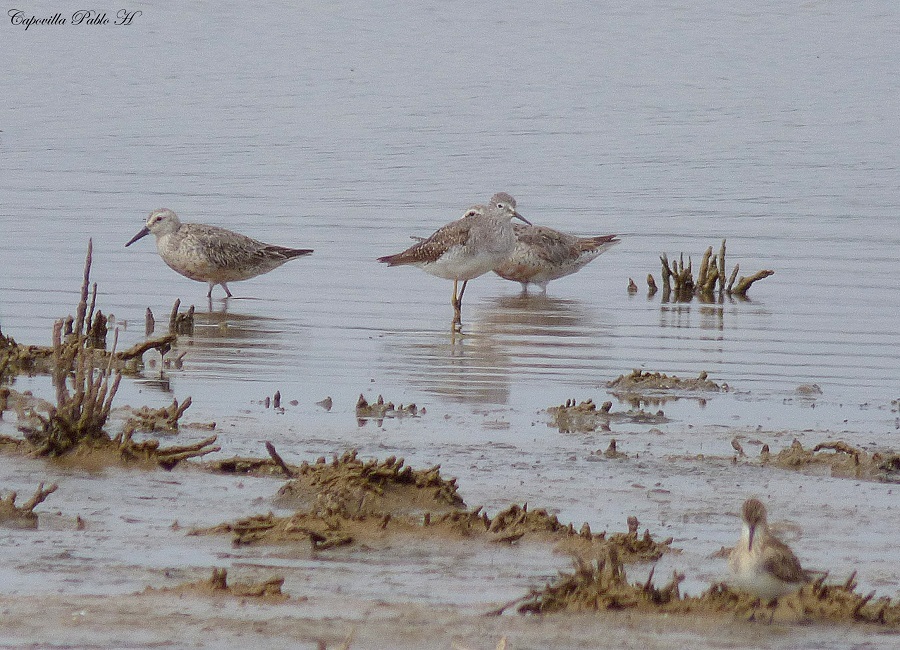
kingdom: Animalia
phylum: Chordata
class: Aves
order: Charadriiformes
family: Scolopacidae
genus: Calidris
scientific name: Calidris canutus
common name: Red knot
